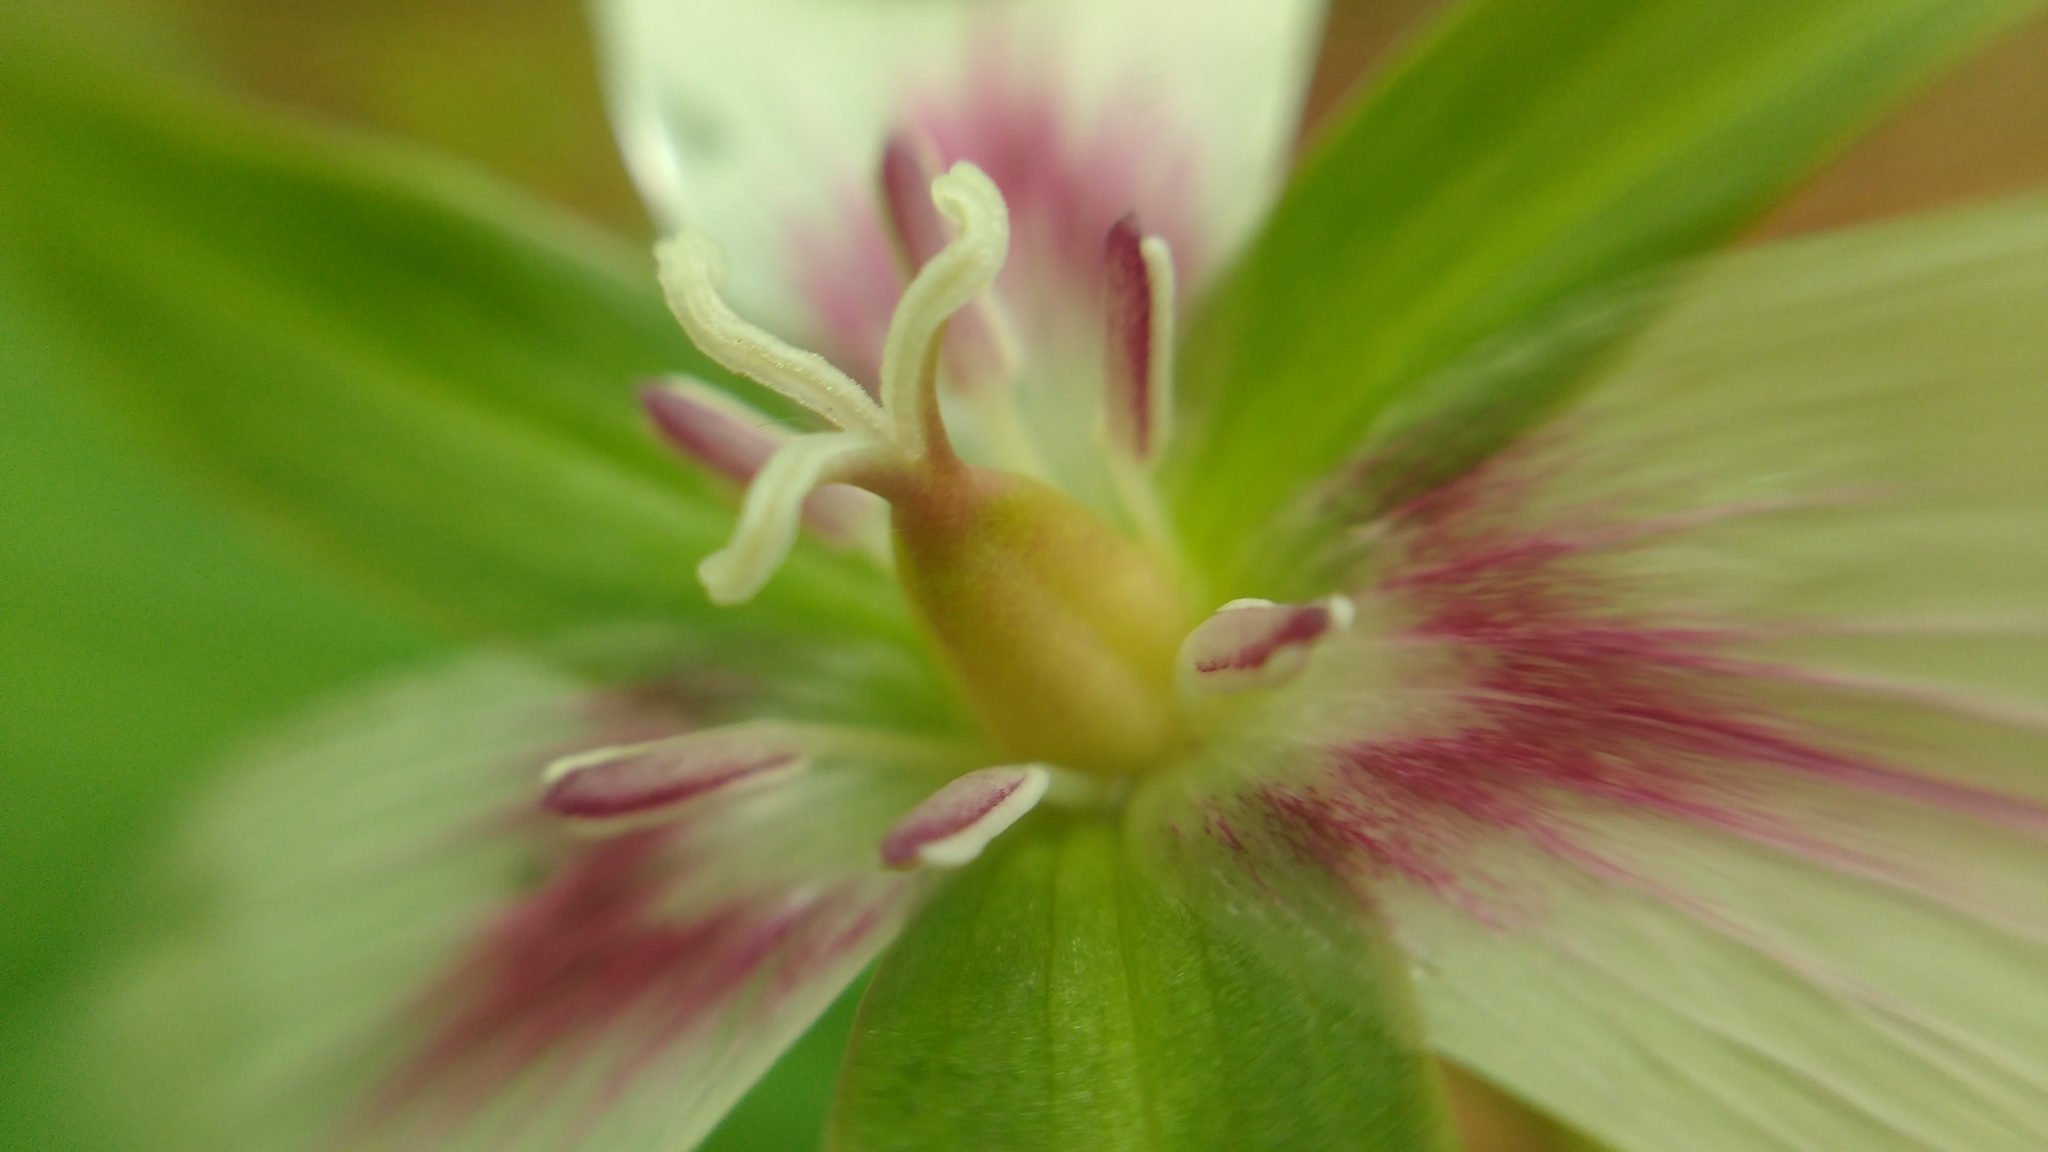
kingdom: Plantae
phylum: Tracheophyta
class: Liliopsida
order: Liliales
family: Melanthiaceae
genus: Trillium
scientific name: Trillium undulatum
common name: Paint trillium
